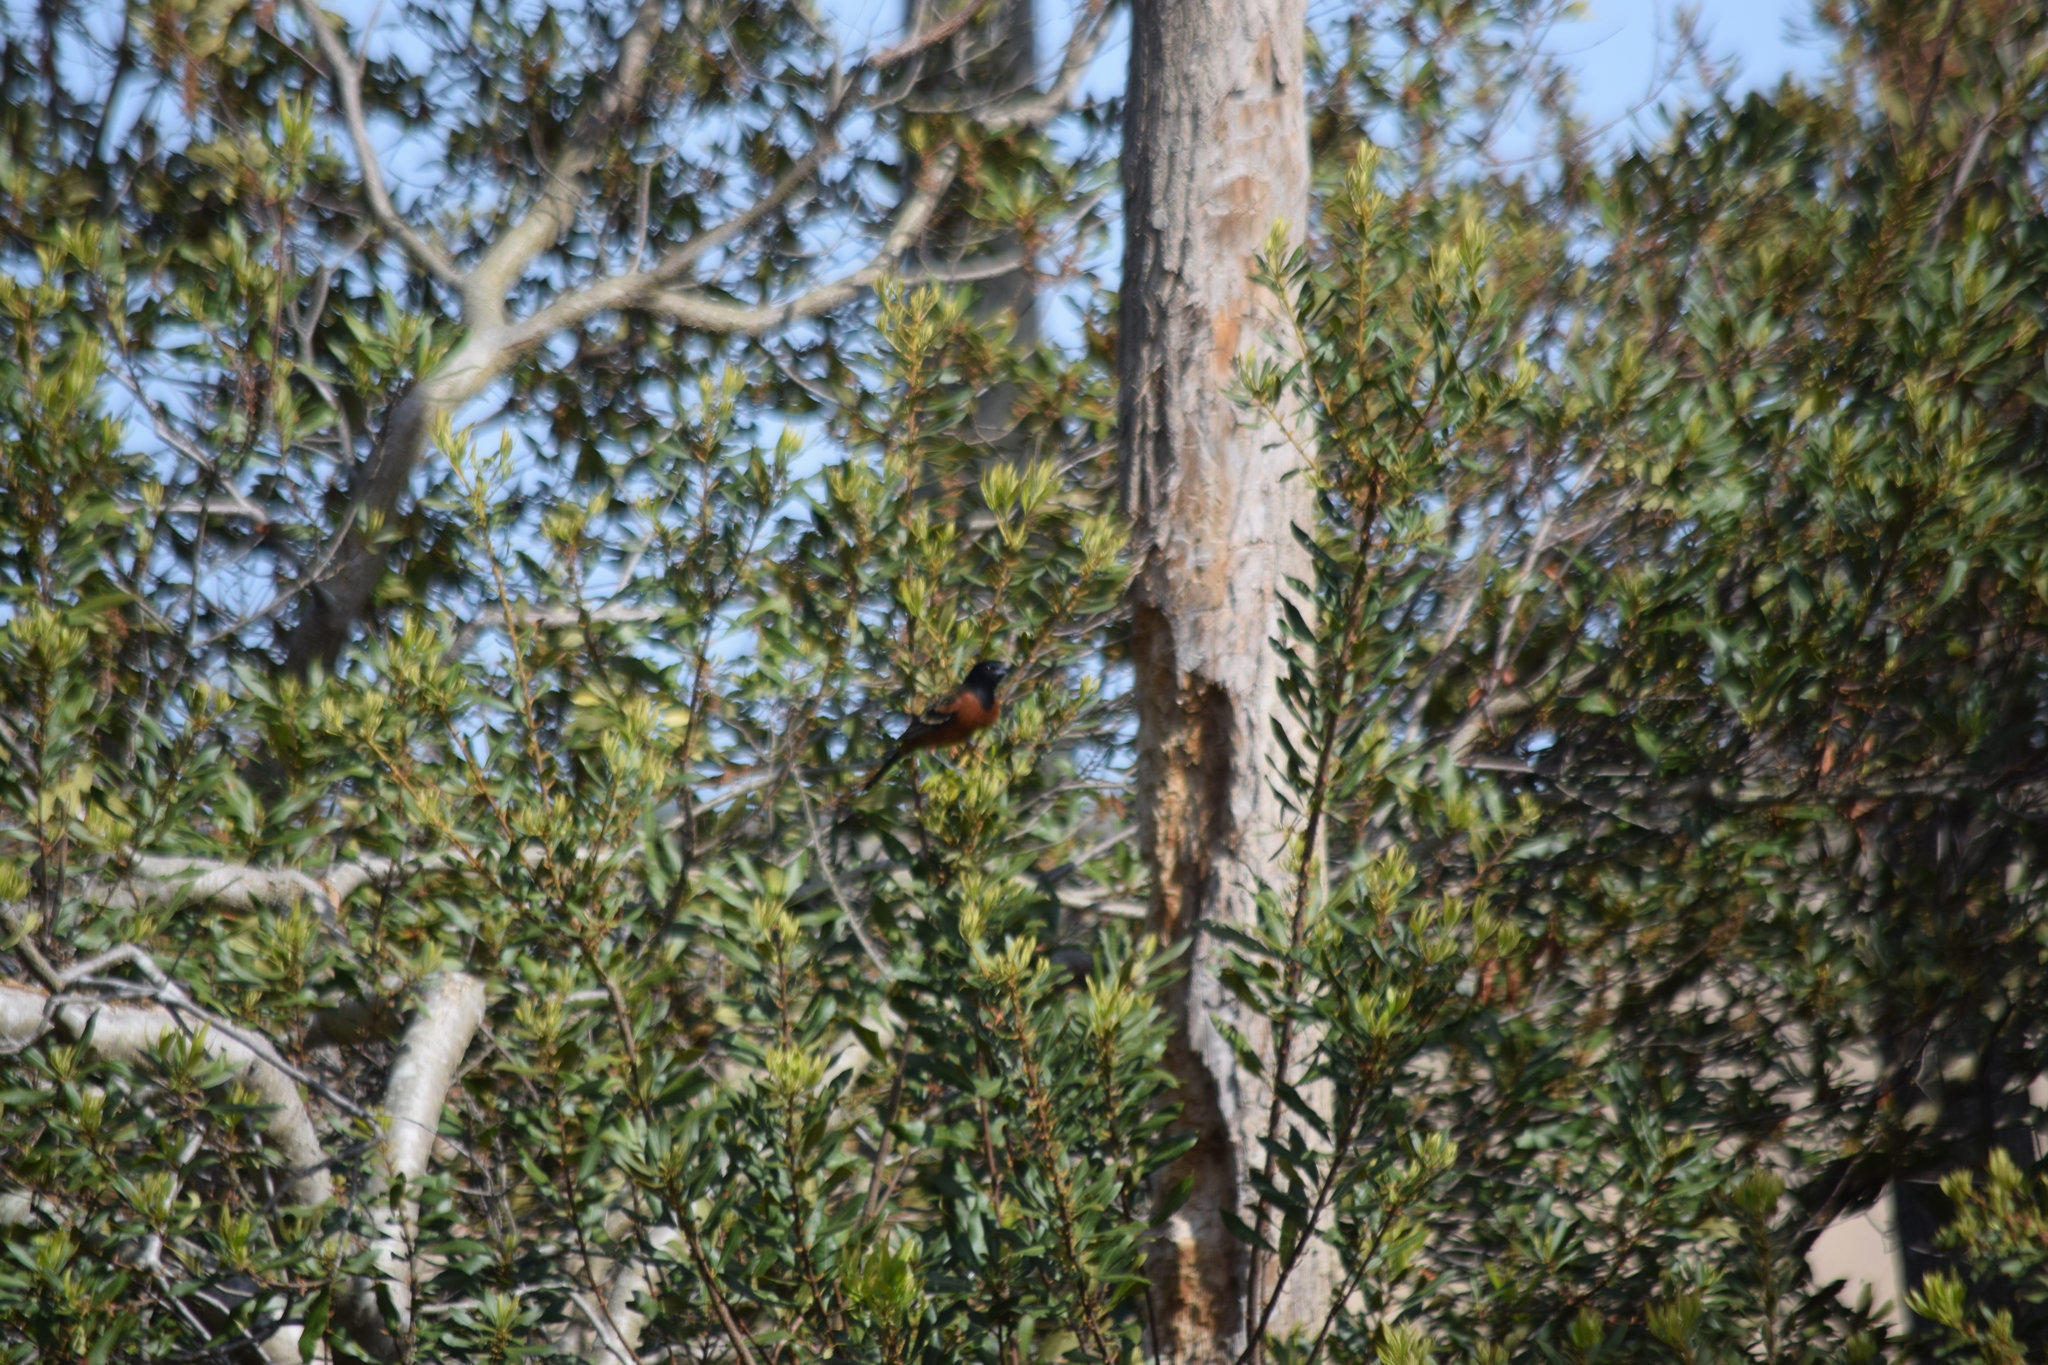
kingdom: Animalia
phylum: Chordata
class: Aves
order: Passeriformes
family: Icteridae
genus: Icterus
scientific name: Icterus spurius
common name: Orchard oriole
